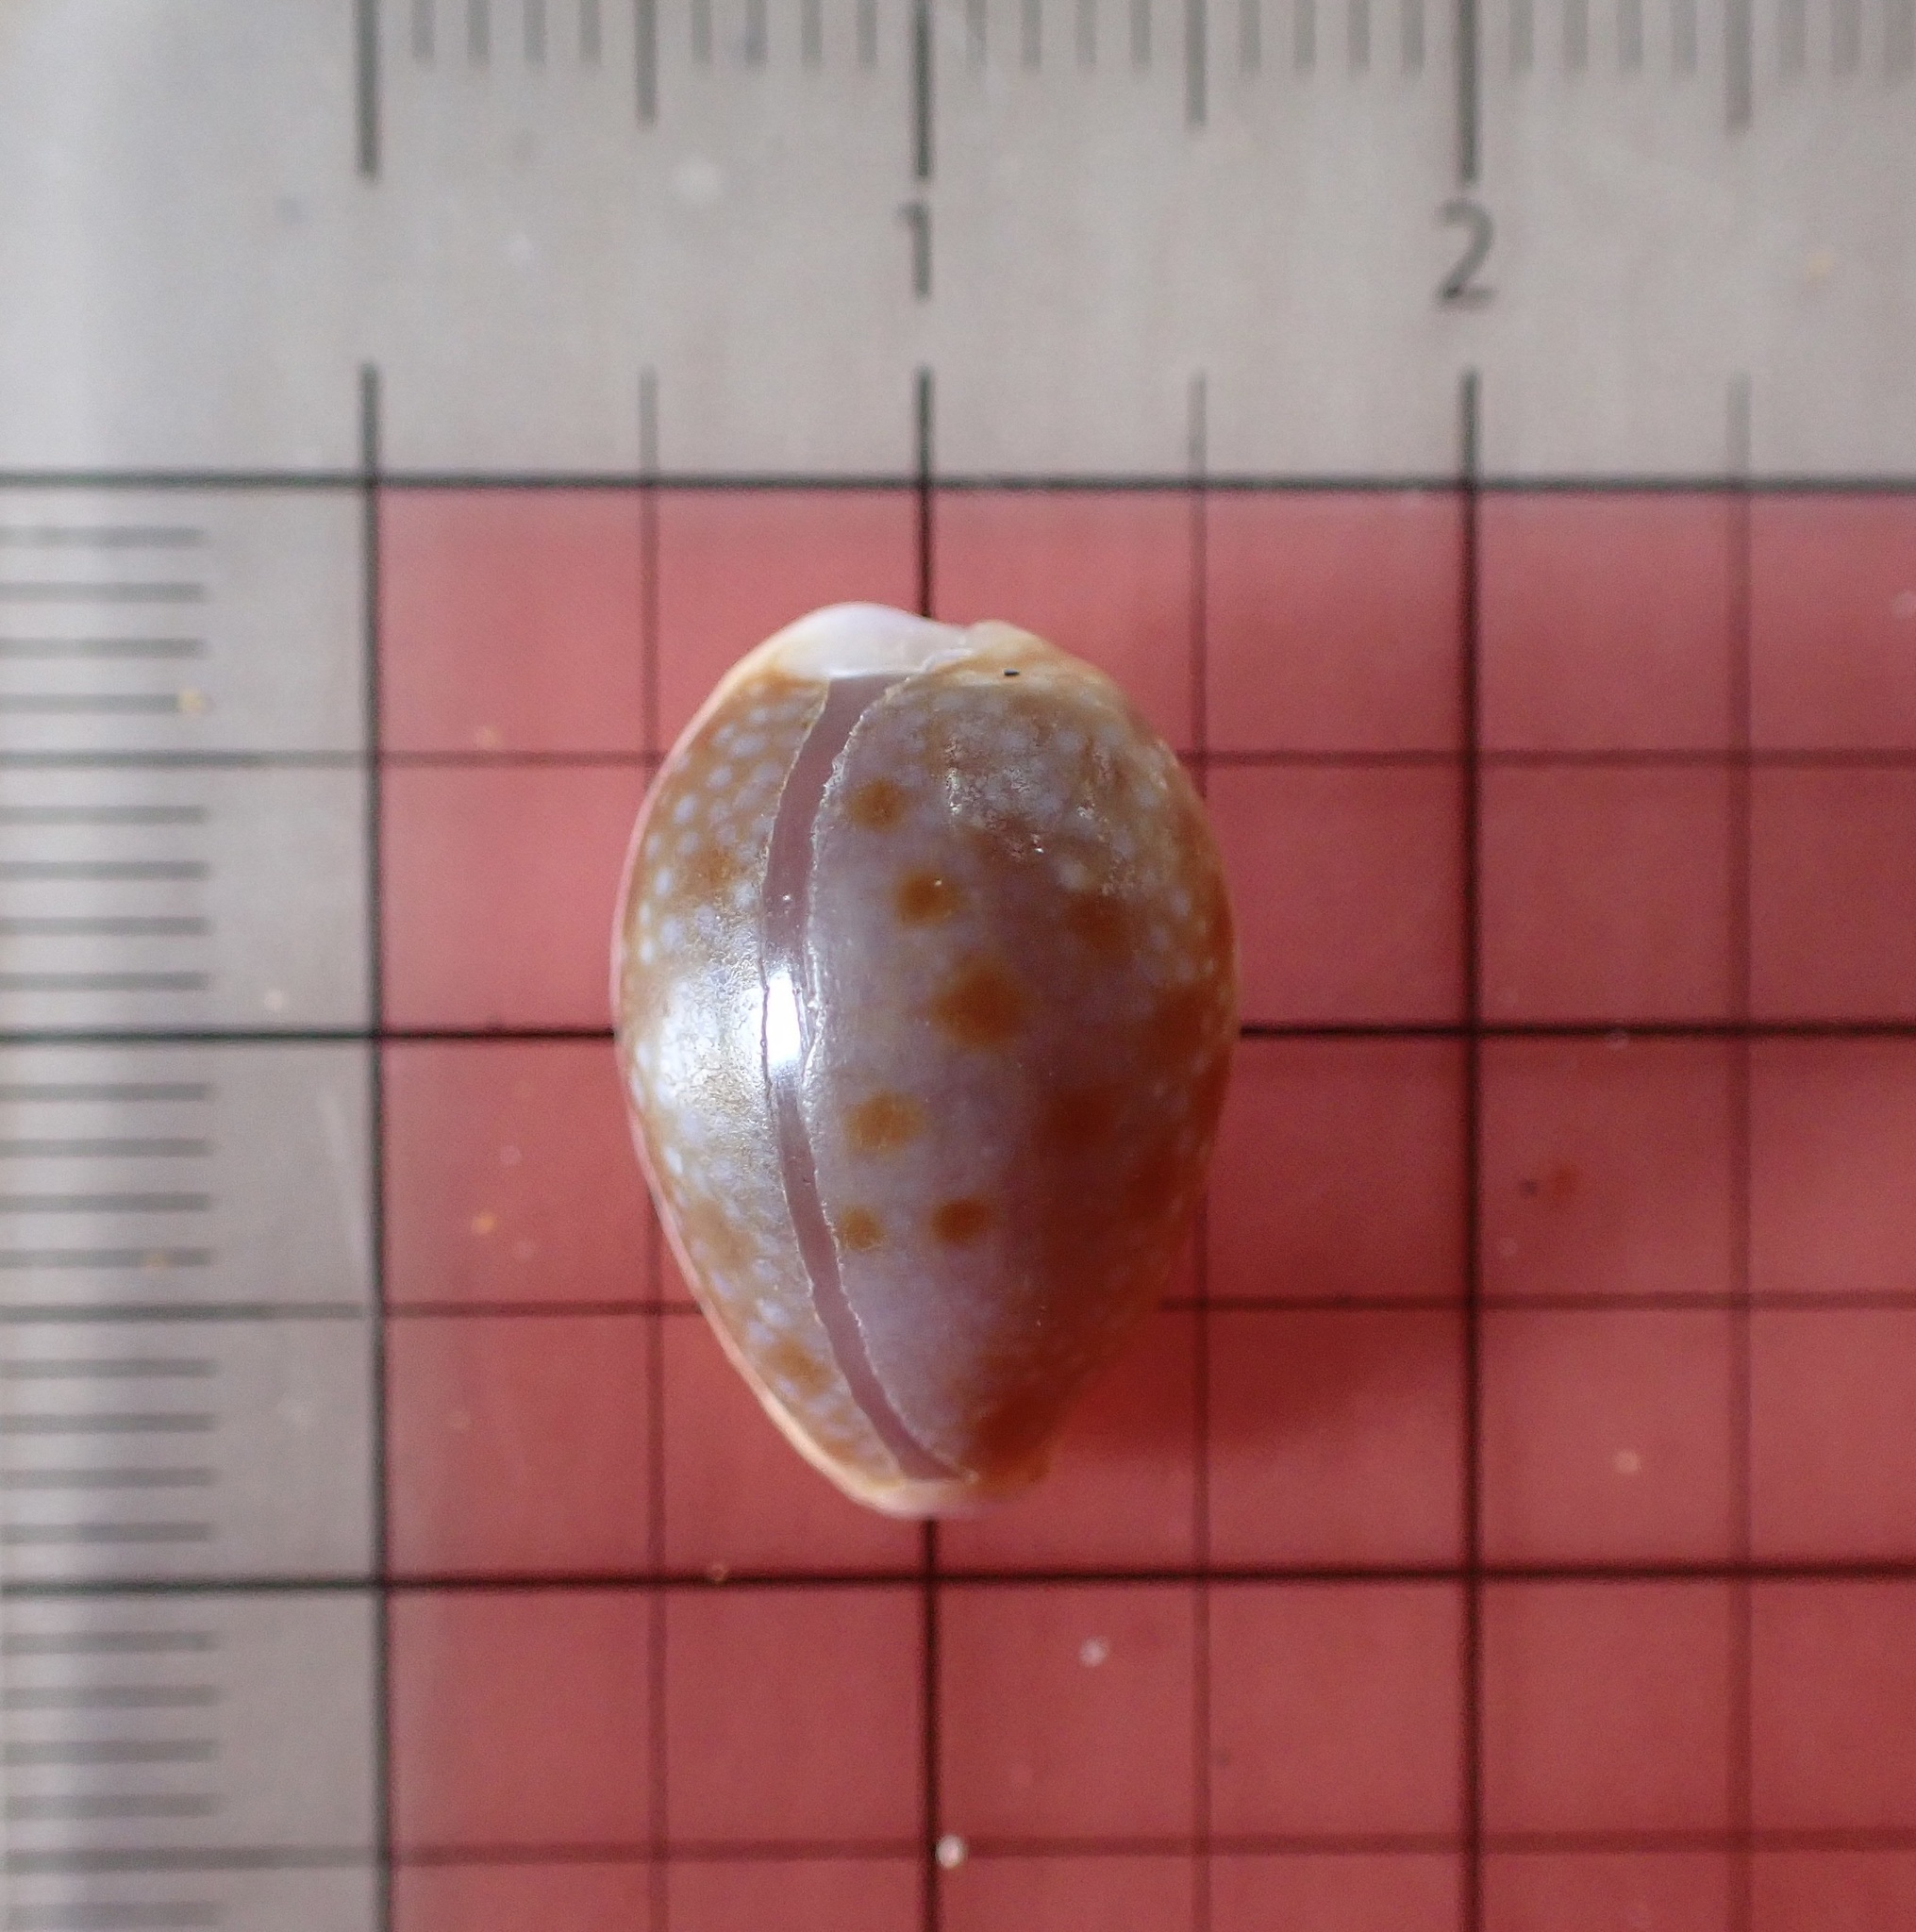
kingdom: Animalia
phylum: Mollusca
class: Gastropoda
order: Littorinimorpha
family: Cypraeidae
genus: Naria
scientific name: Naria helvola
